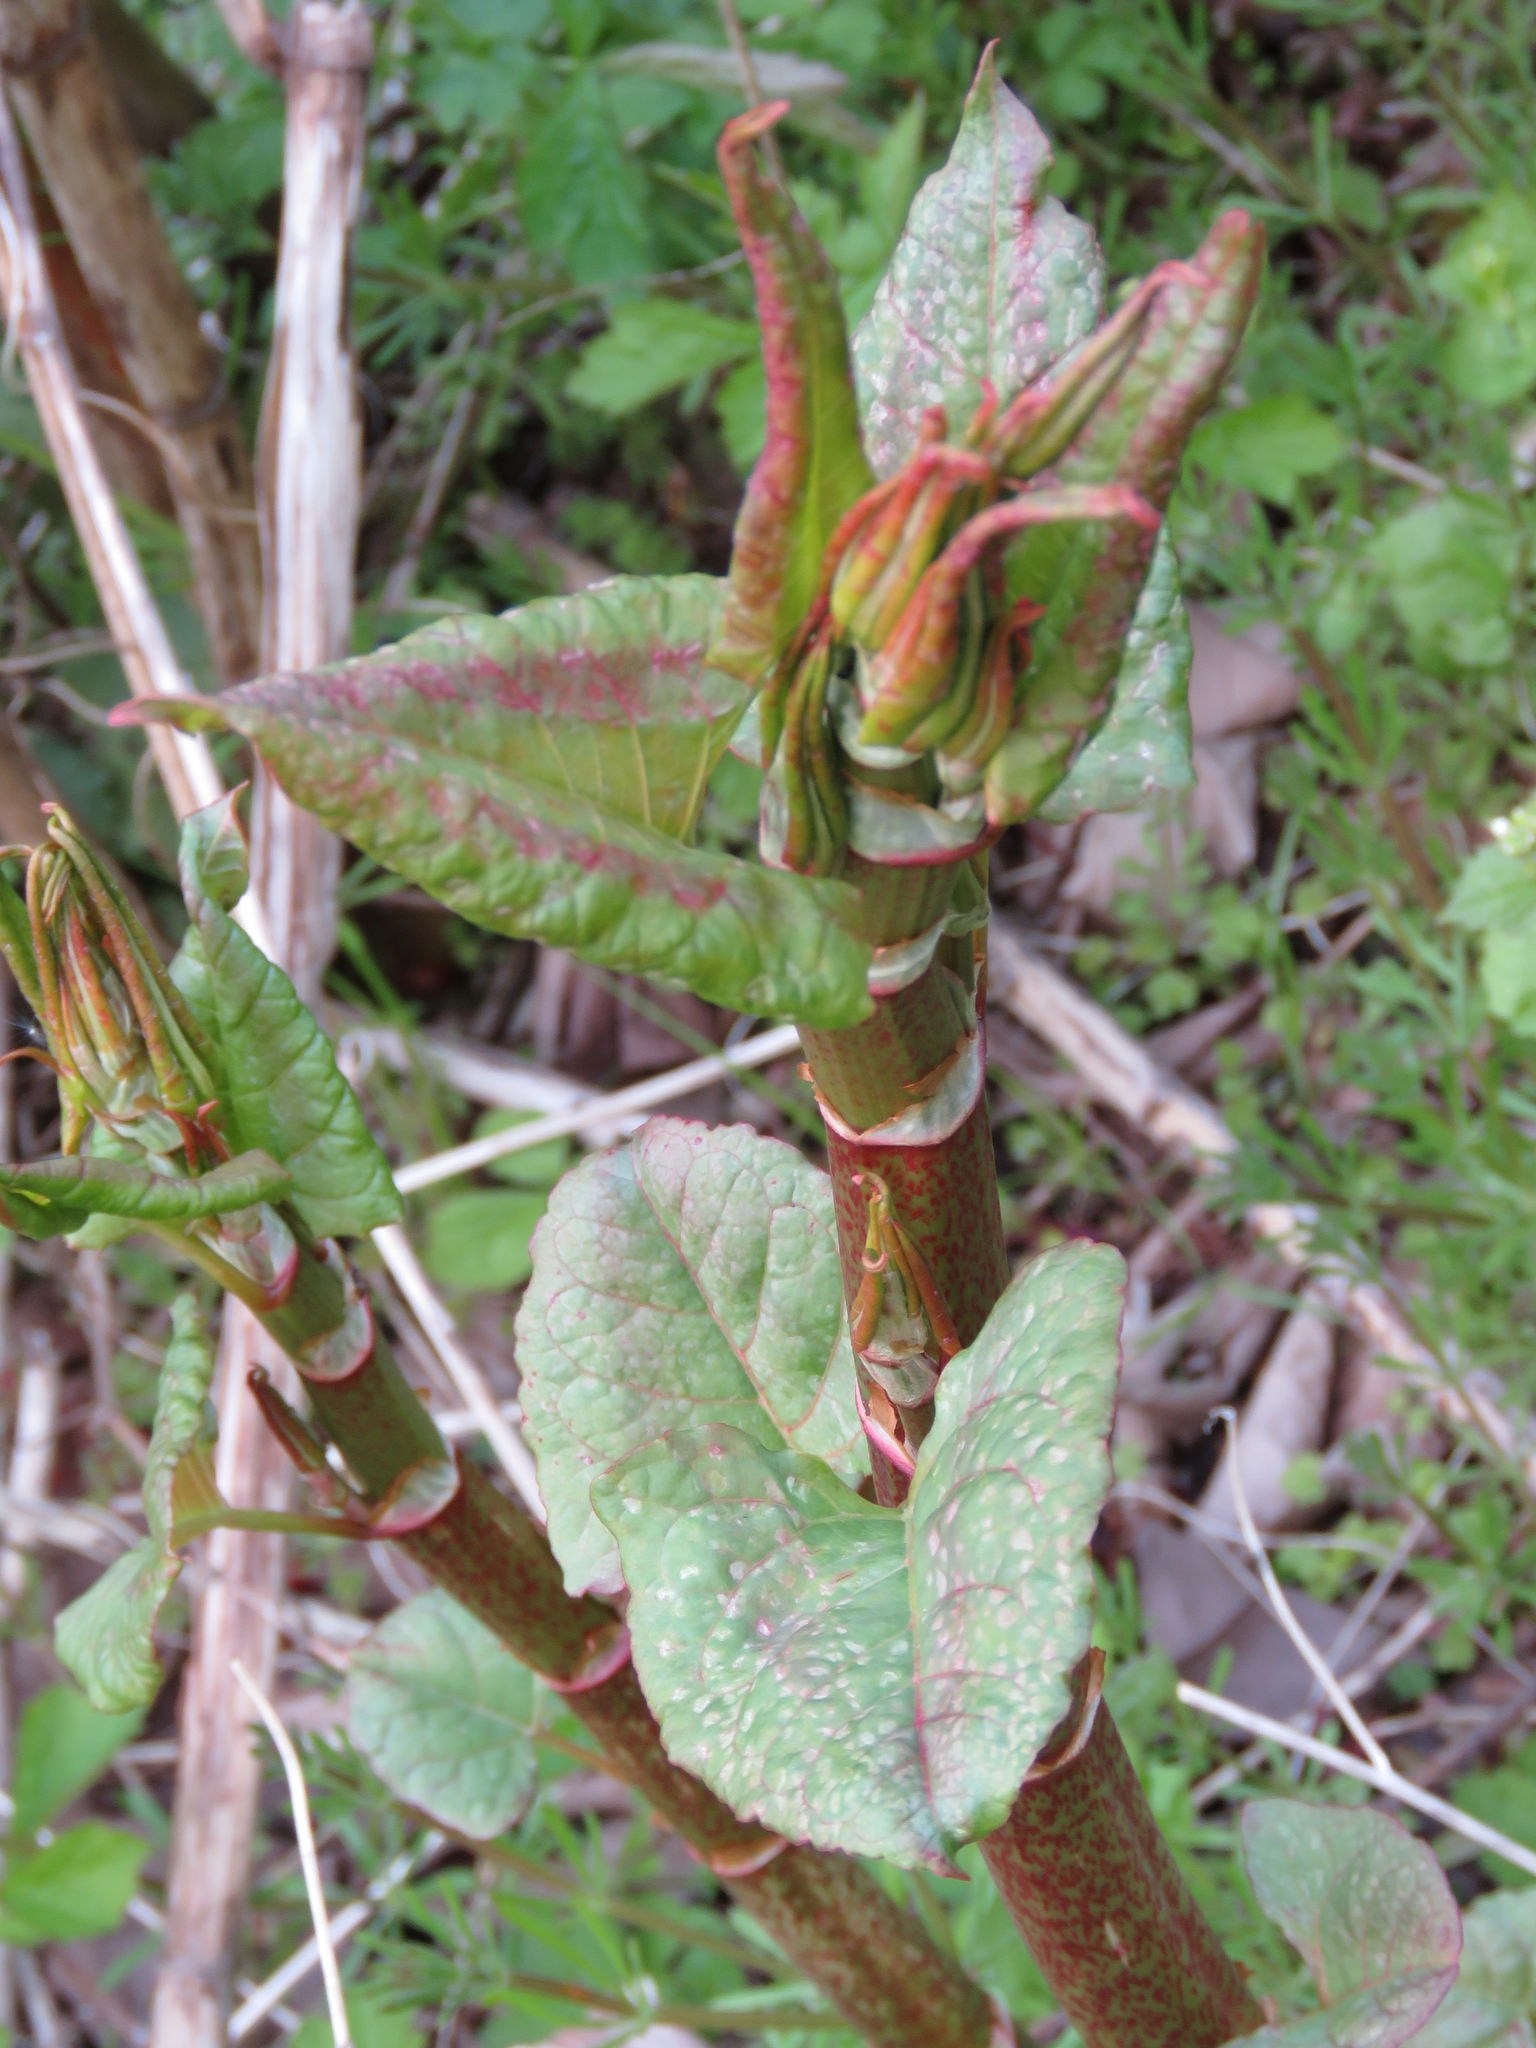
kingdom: Plantae
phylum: Tracheophyta
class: Magnoliopsida
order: Caryophyllales
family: Polygonaceae
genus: Reynoutria
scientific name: Reynoutria japonica
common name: Japanese knotweed
